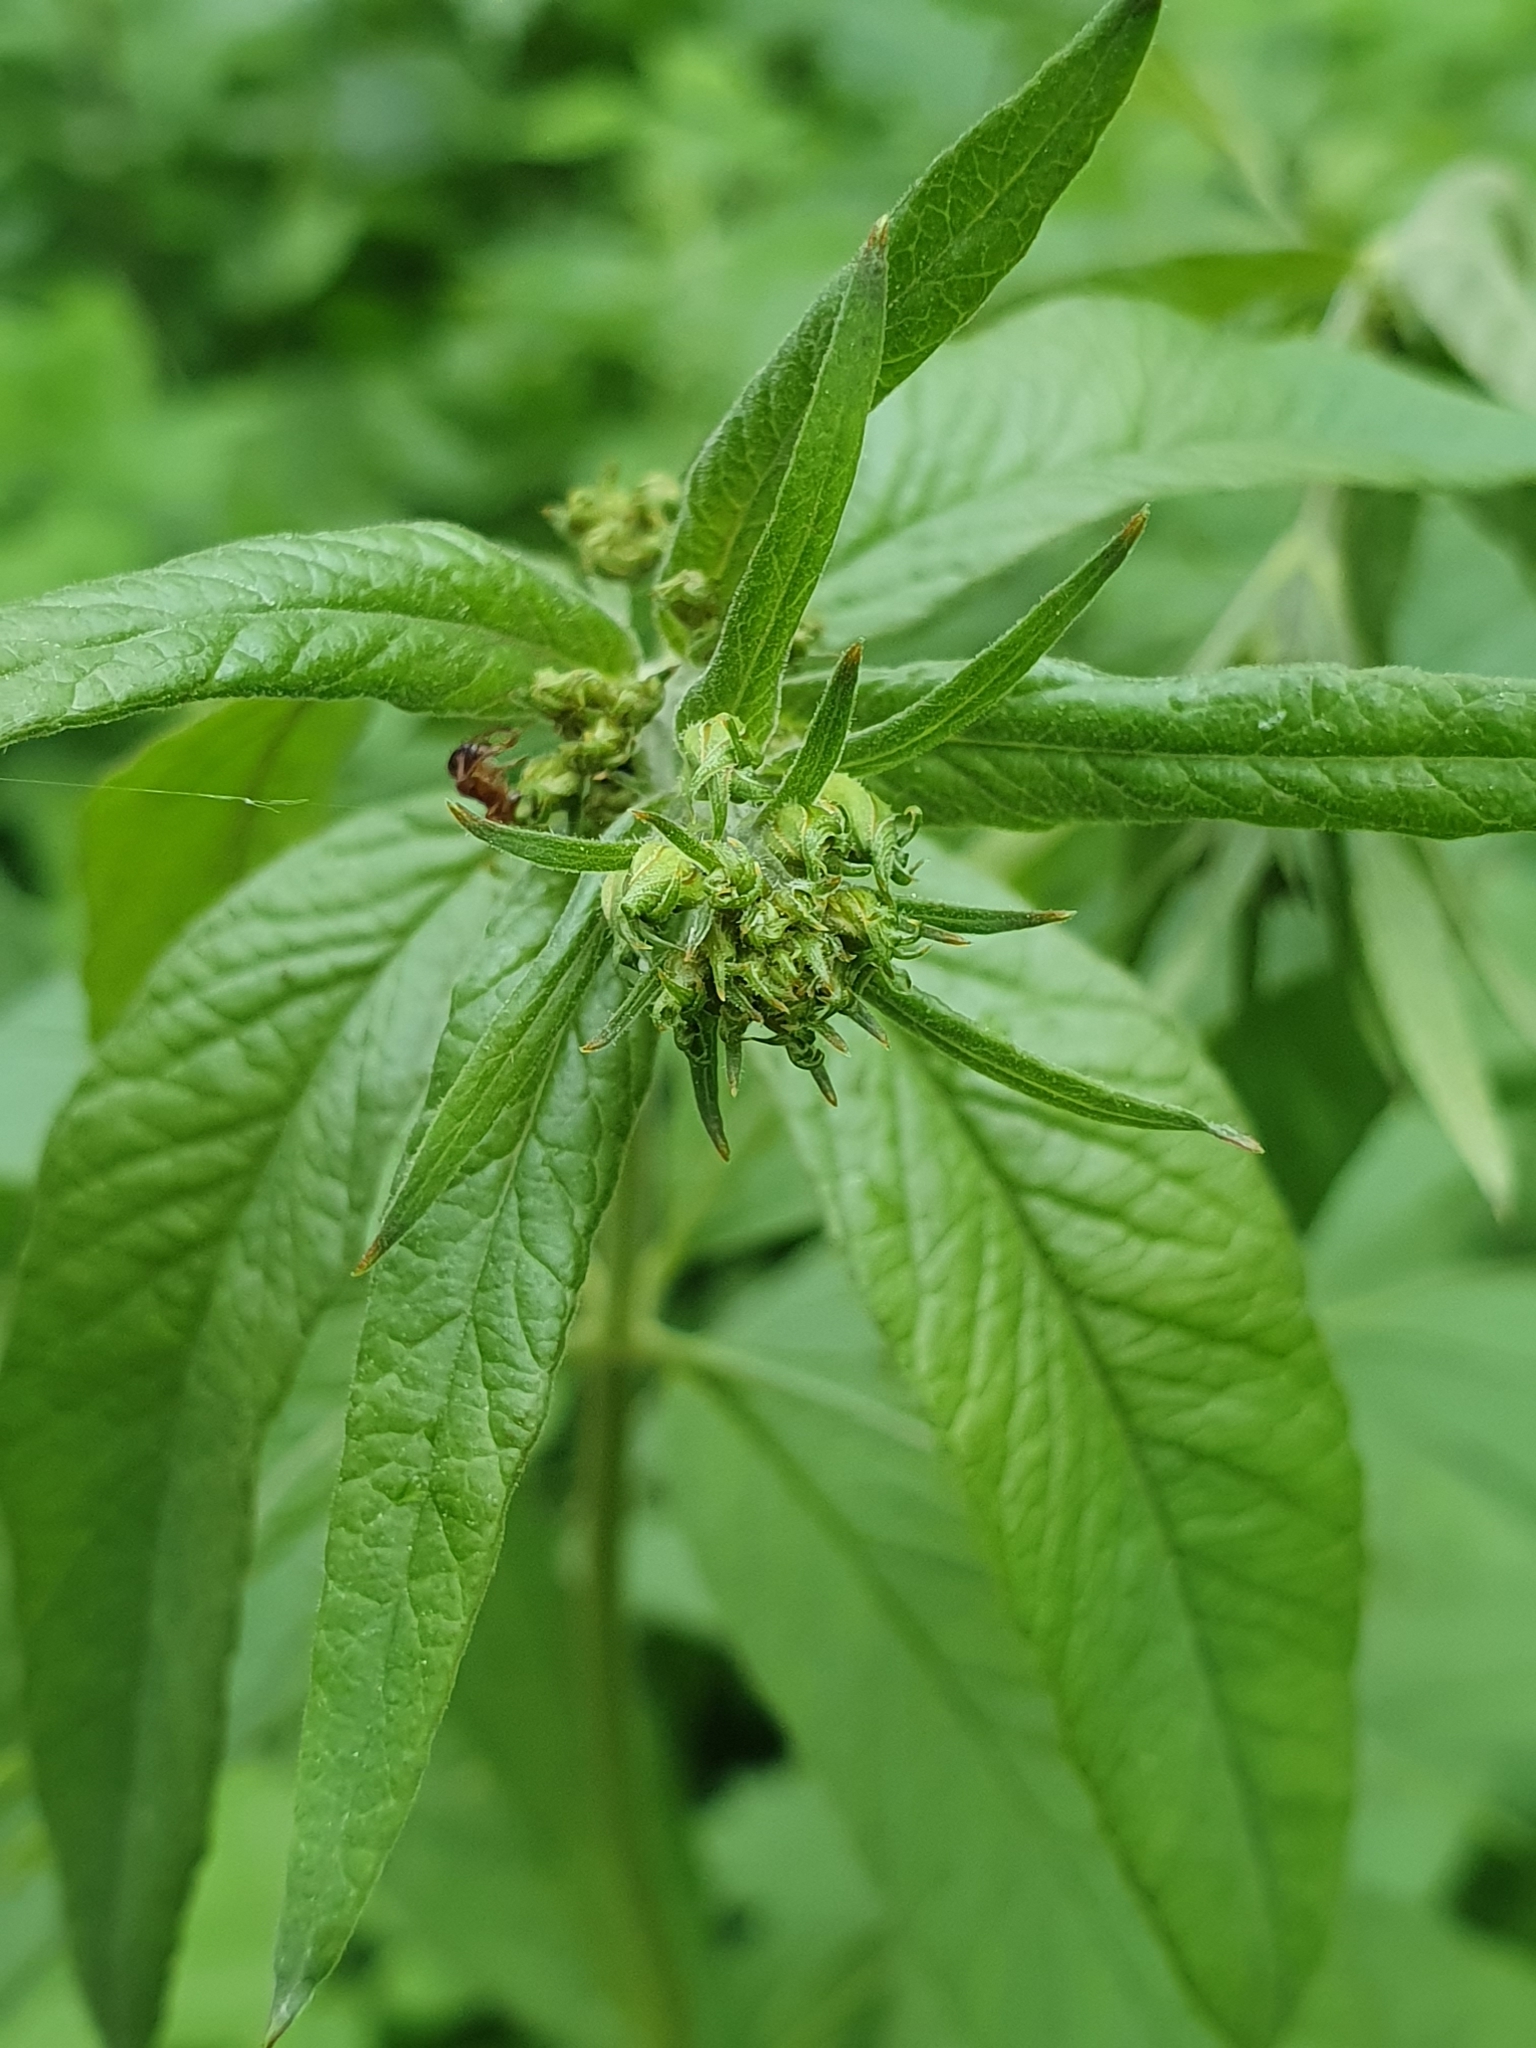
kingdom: Plantae
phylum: Tracheophyta
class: Magnoliopsida
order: Ericales
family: Primulaceae
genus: Lysimachia
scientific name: Lysimachia vulgaris
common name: Yellow loosestrife
